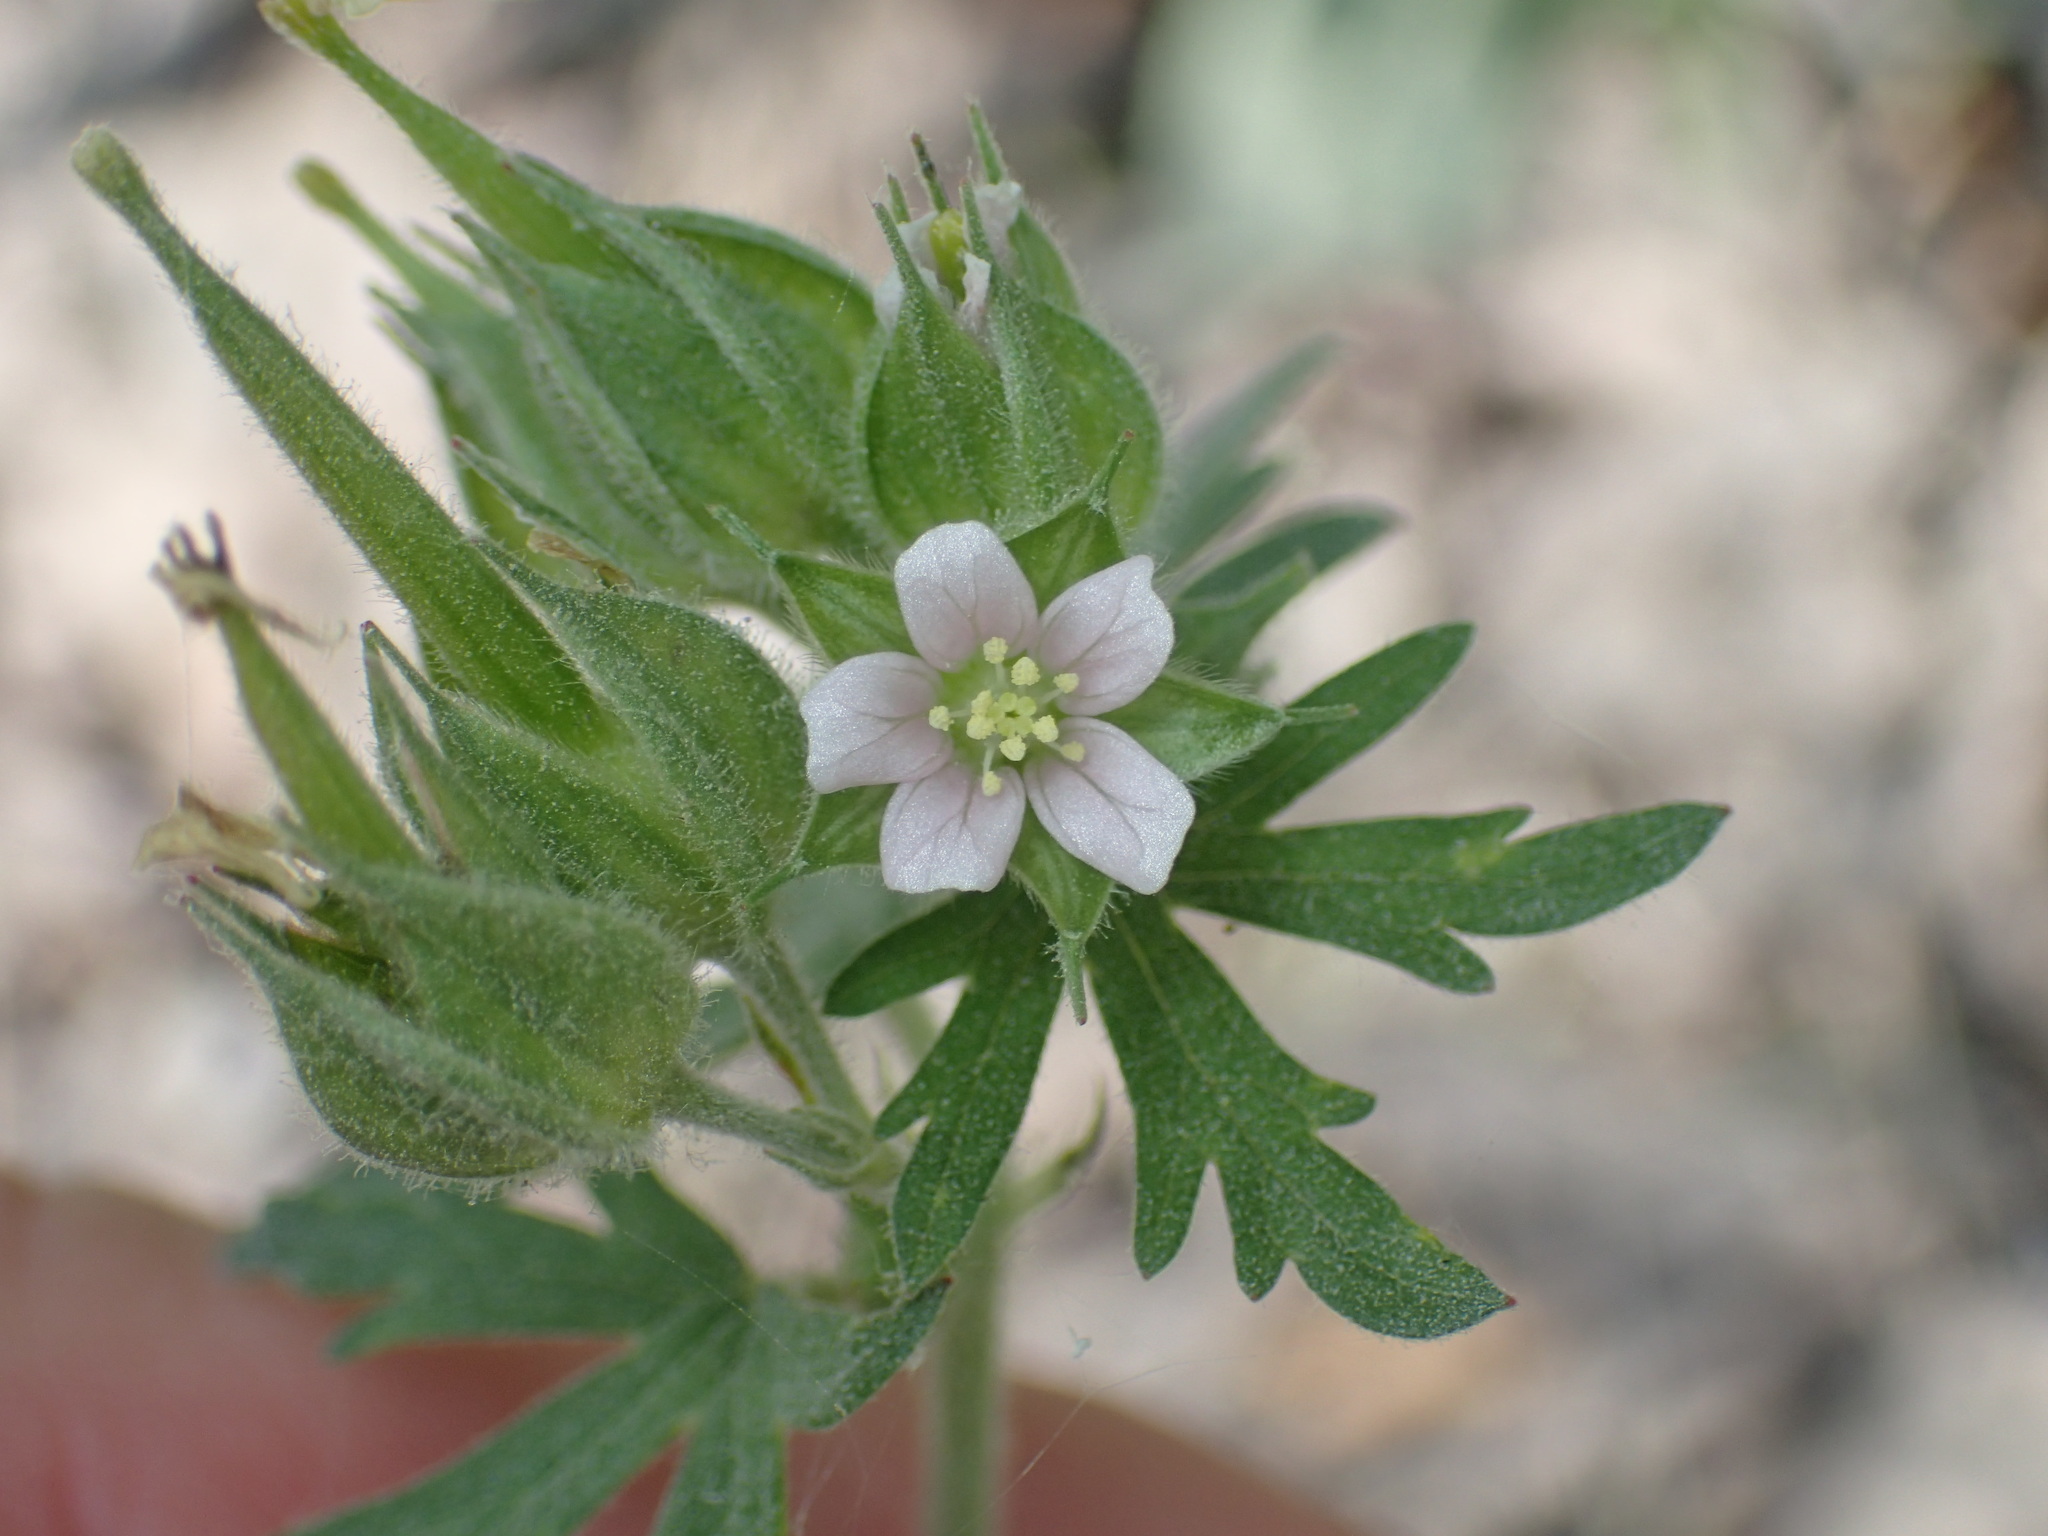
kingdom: Plantae
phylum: Tracheophyta
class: Magnoliopsida
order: Geraniales
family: Geraniaceae
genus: Geranium
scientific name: Geranium carolinianum
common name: Carolina crane's-bill
